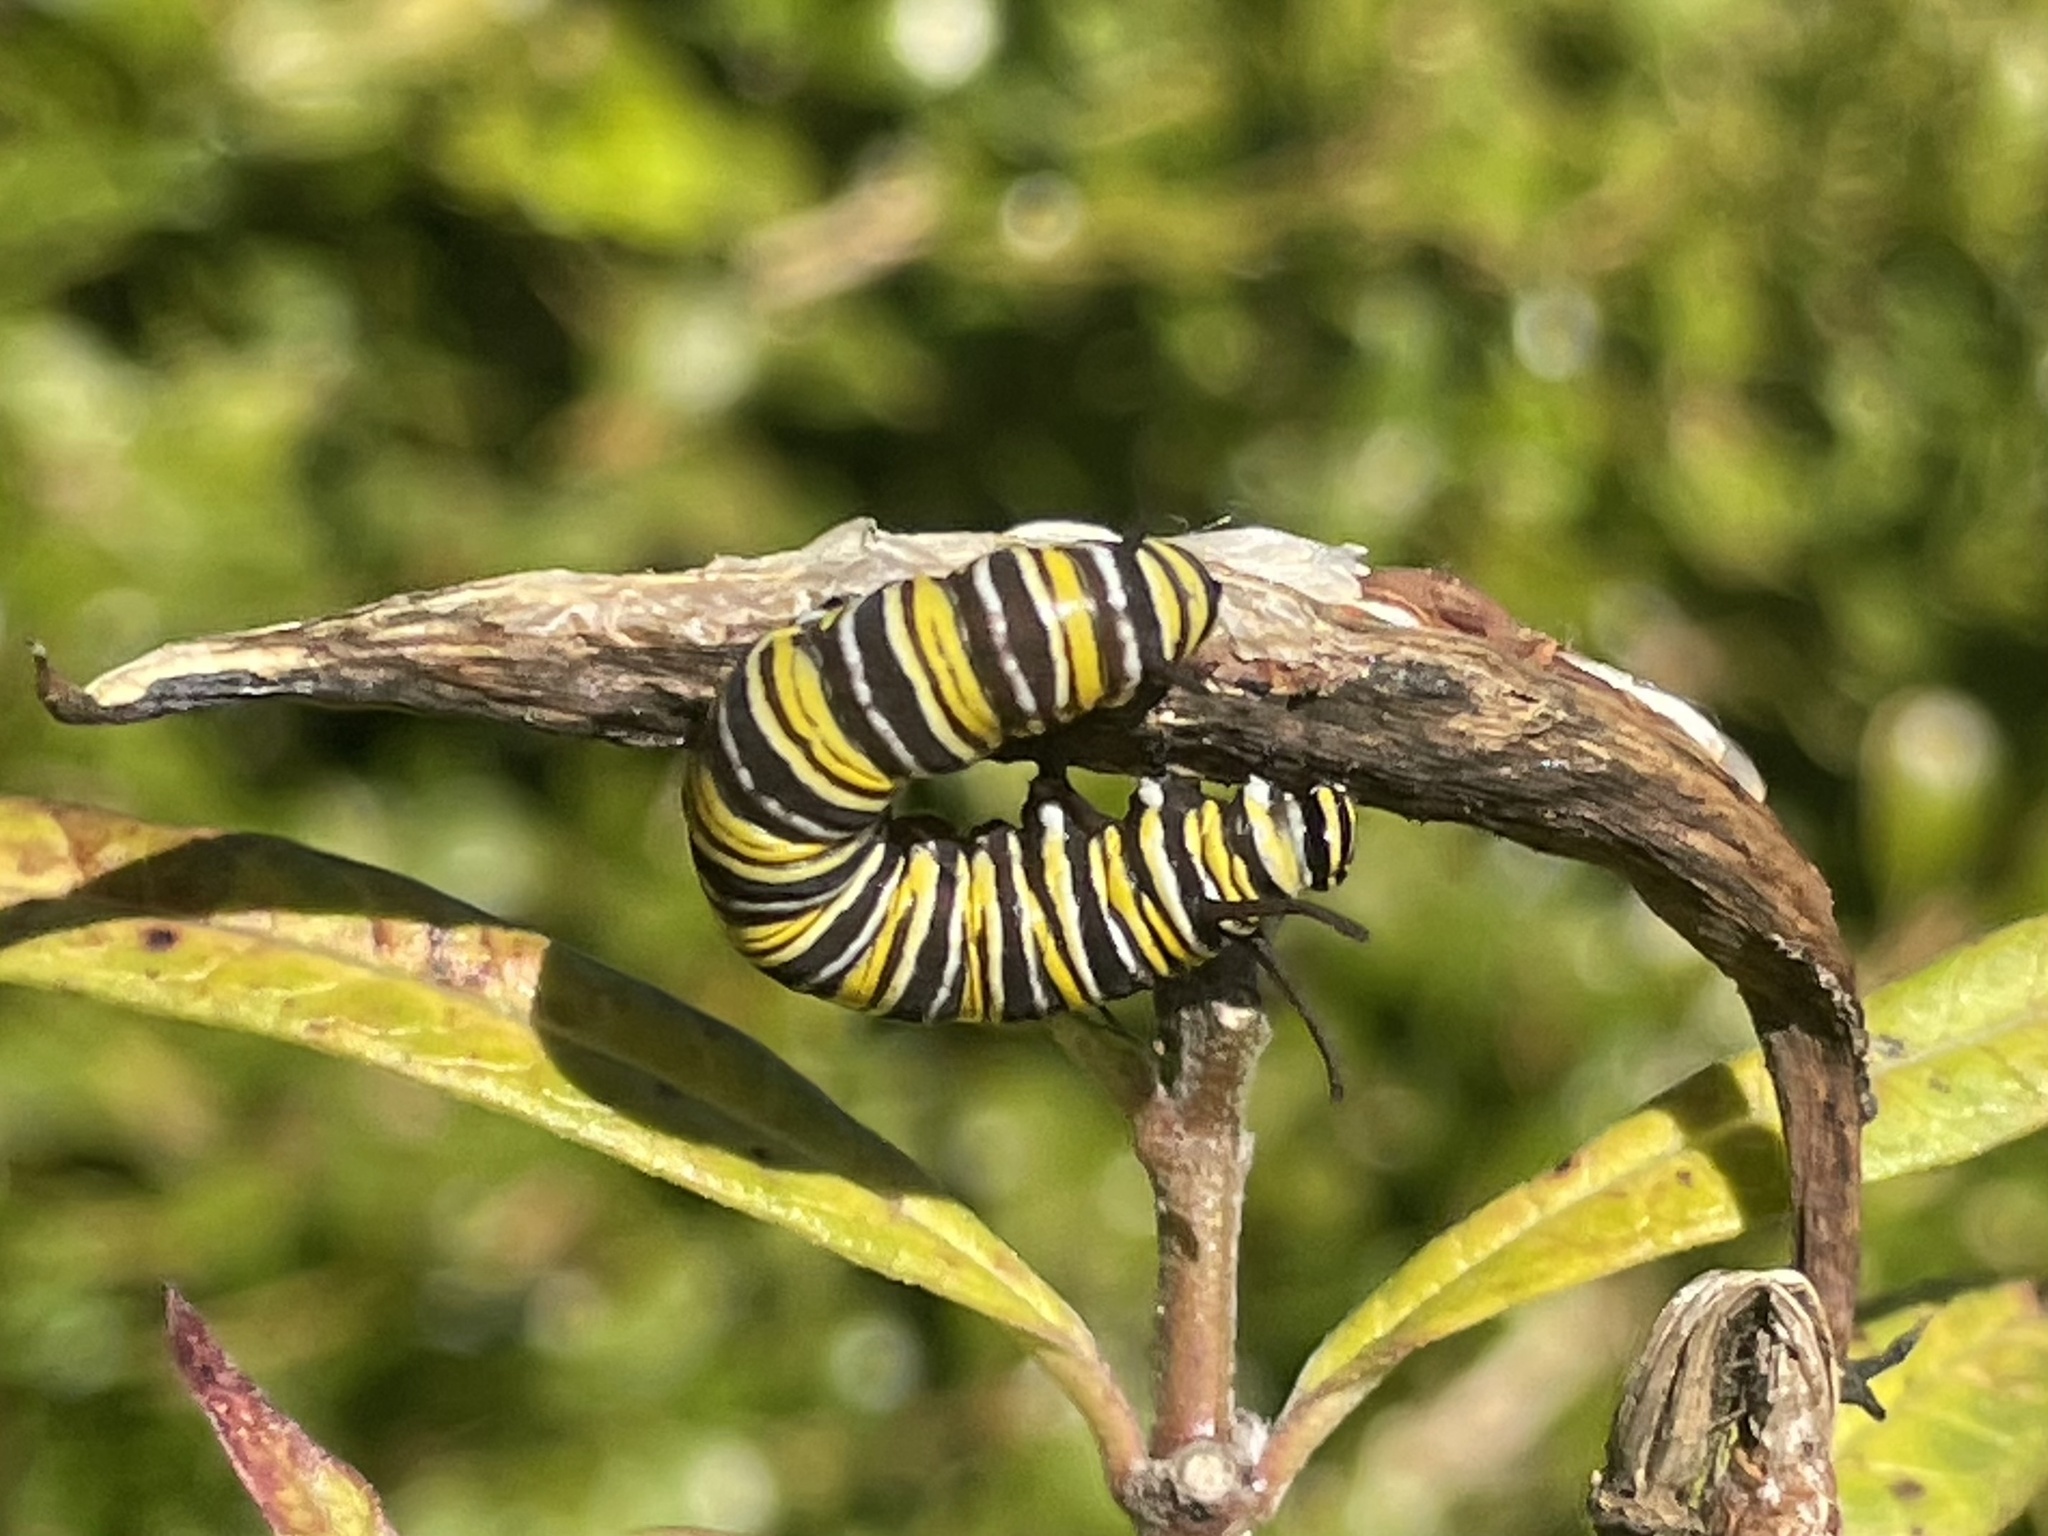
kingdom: Animalia
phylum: Arthropoda
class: Insecta
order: Lepidoptera
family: Nymphalidae
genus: Danaus
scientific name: Danaus plexippus
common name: Monarch
